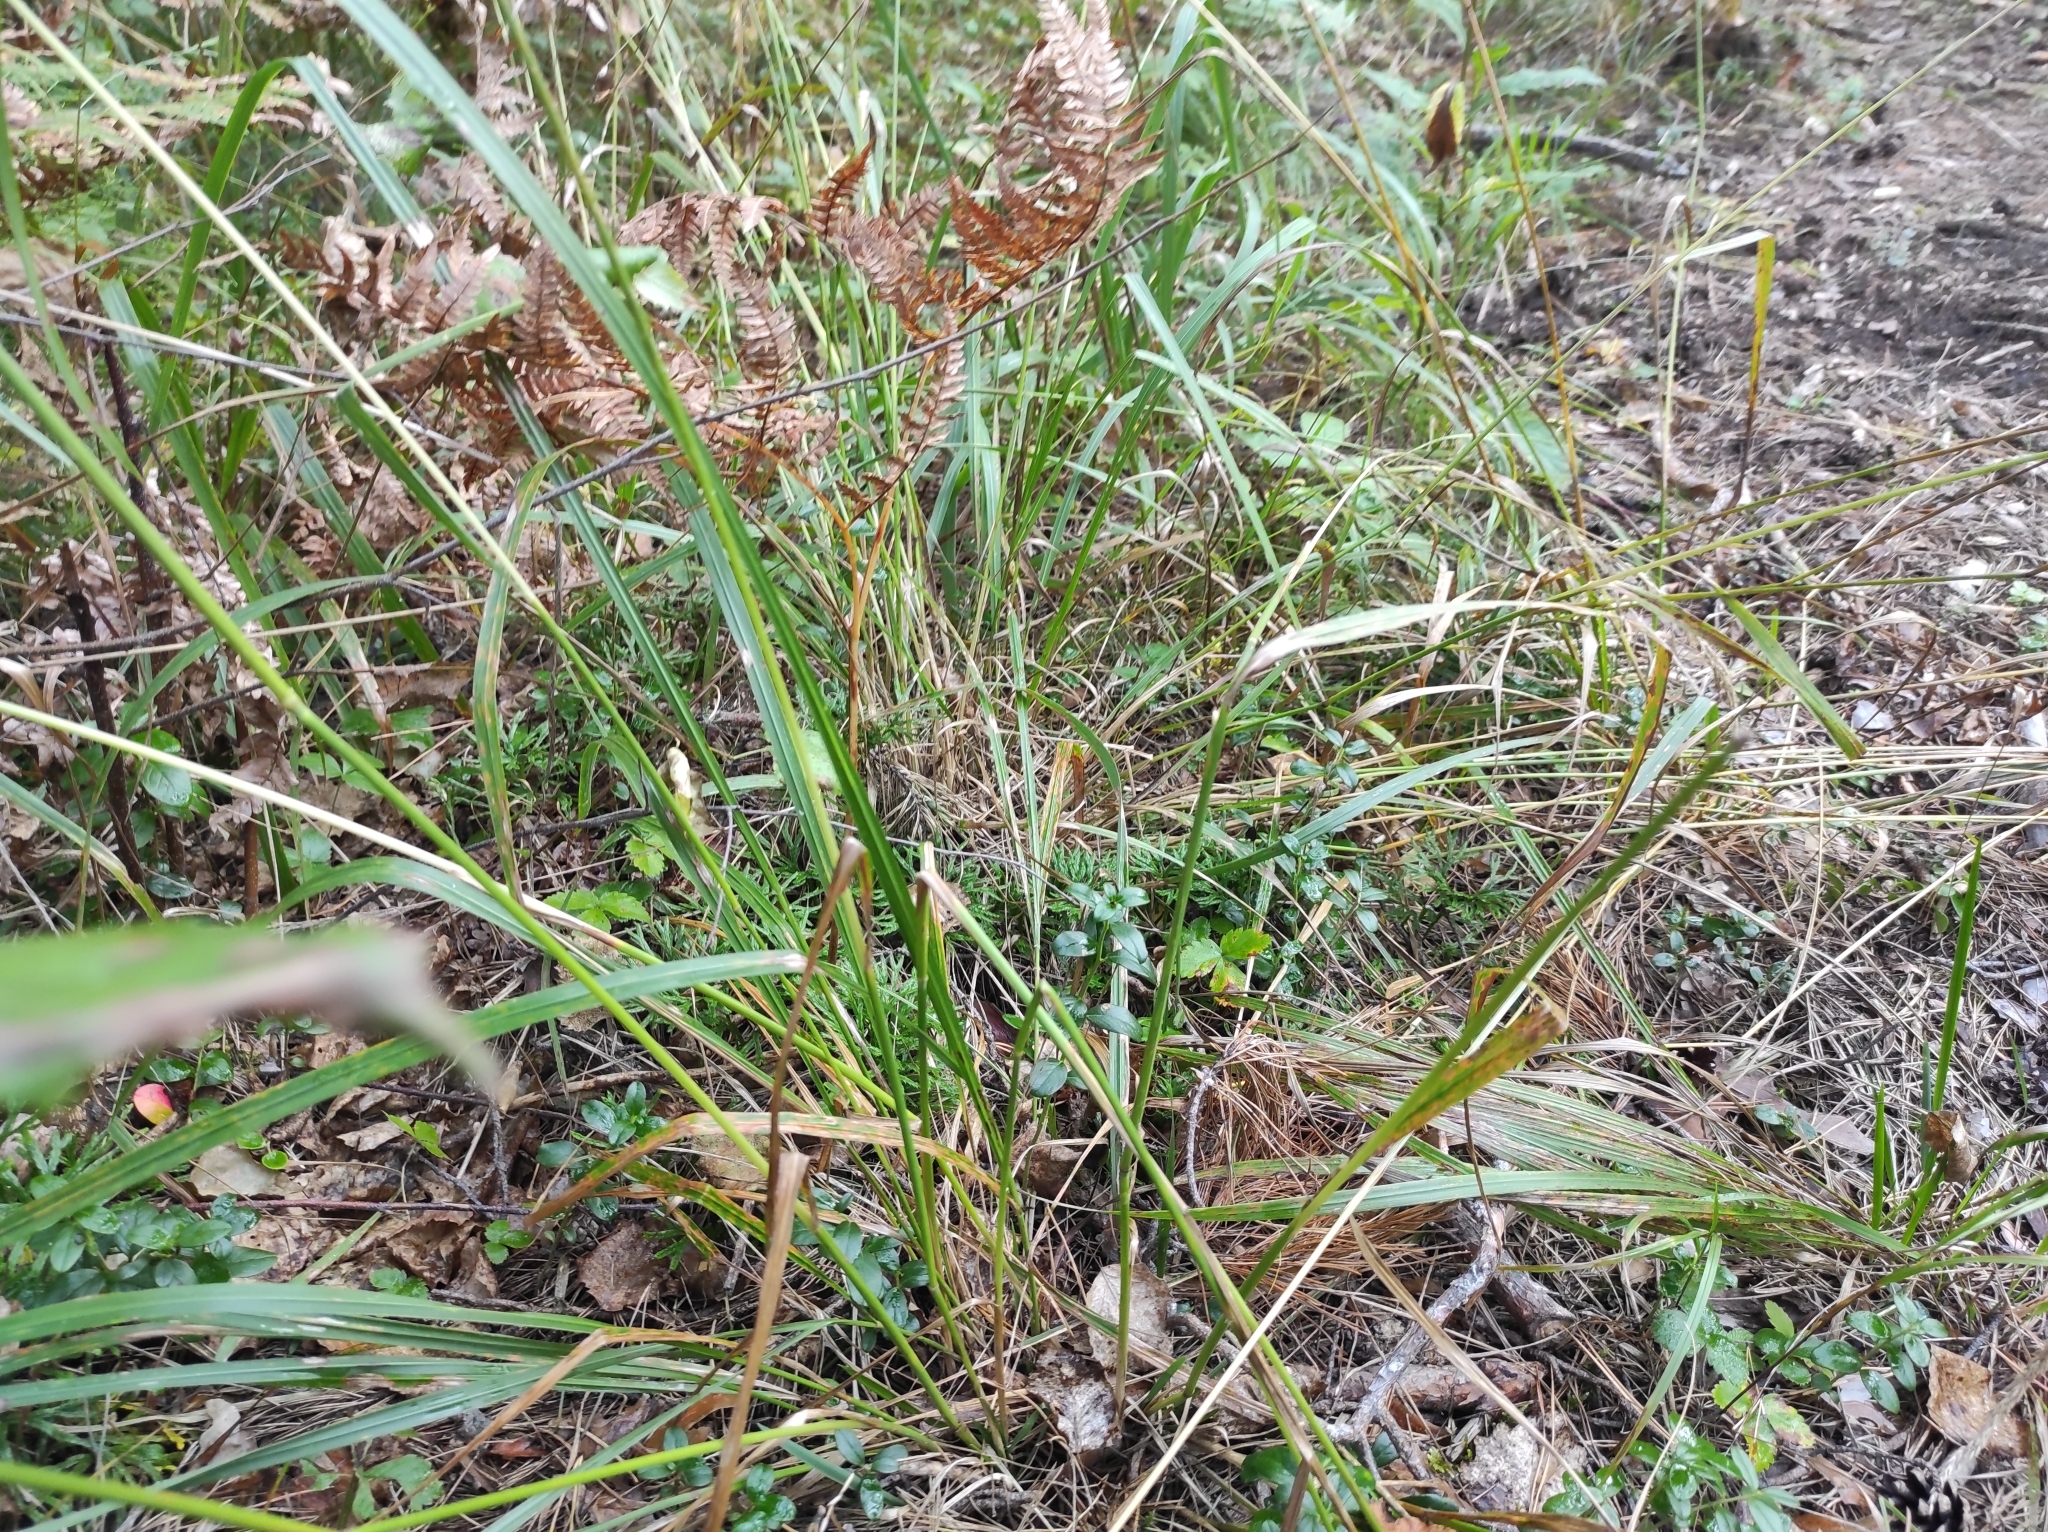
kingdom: Plantae
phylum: Tracheophyta
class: Lycopodiopsida
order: Lycopodiales
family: Lycopodiaceae
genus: Diphasiastrum
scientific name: Diphasiastrum complanatum
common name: Northern running-pine
